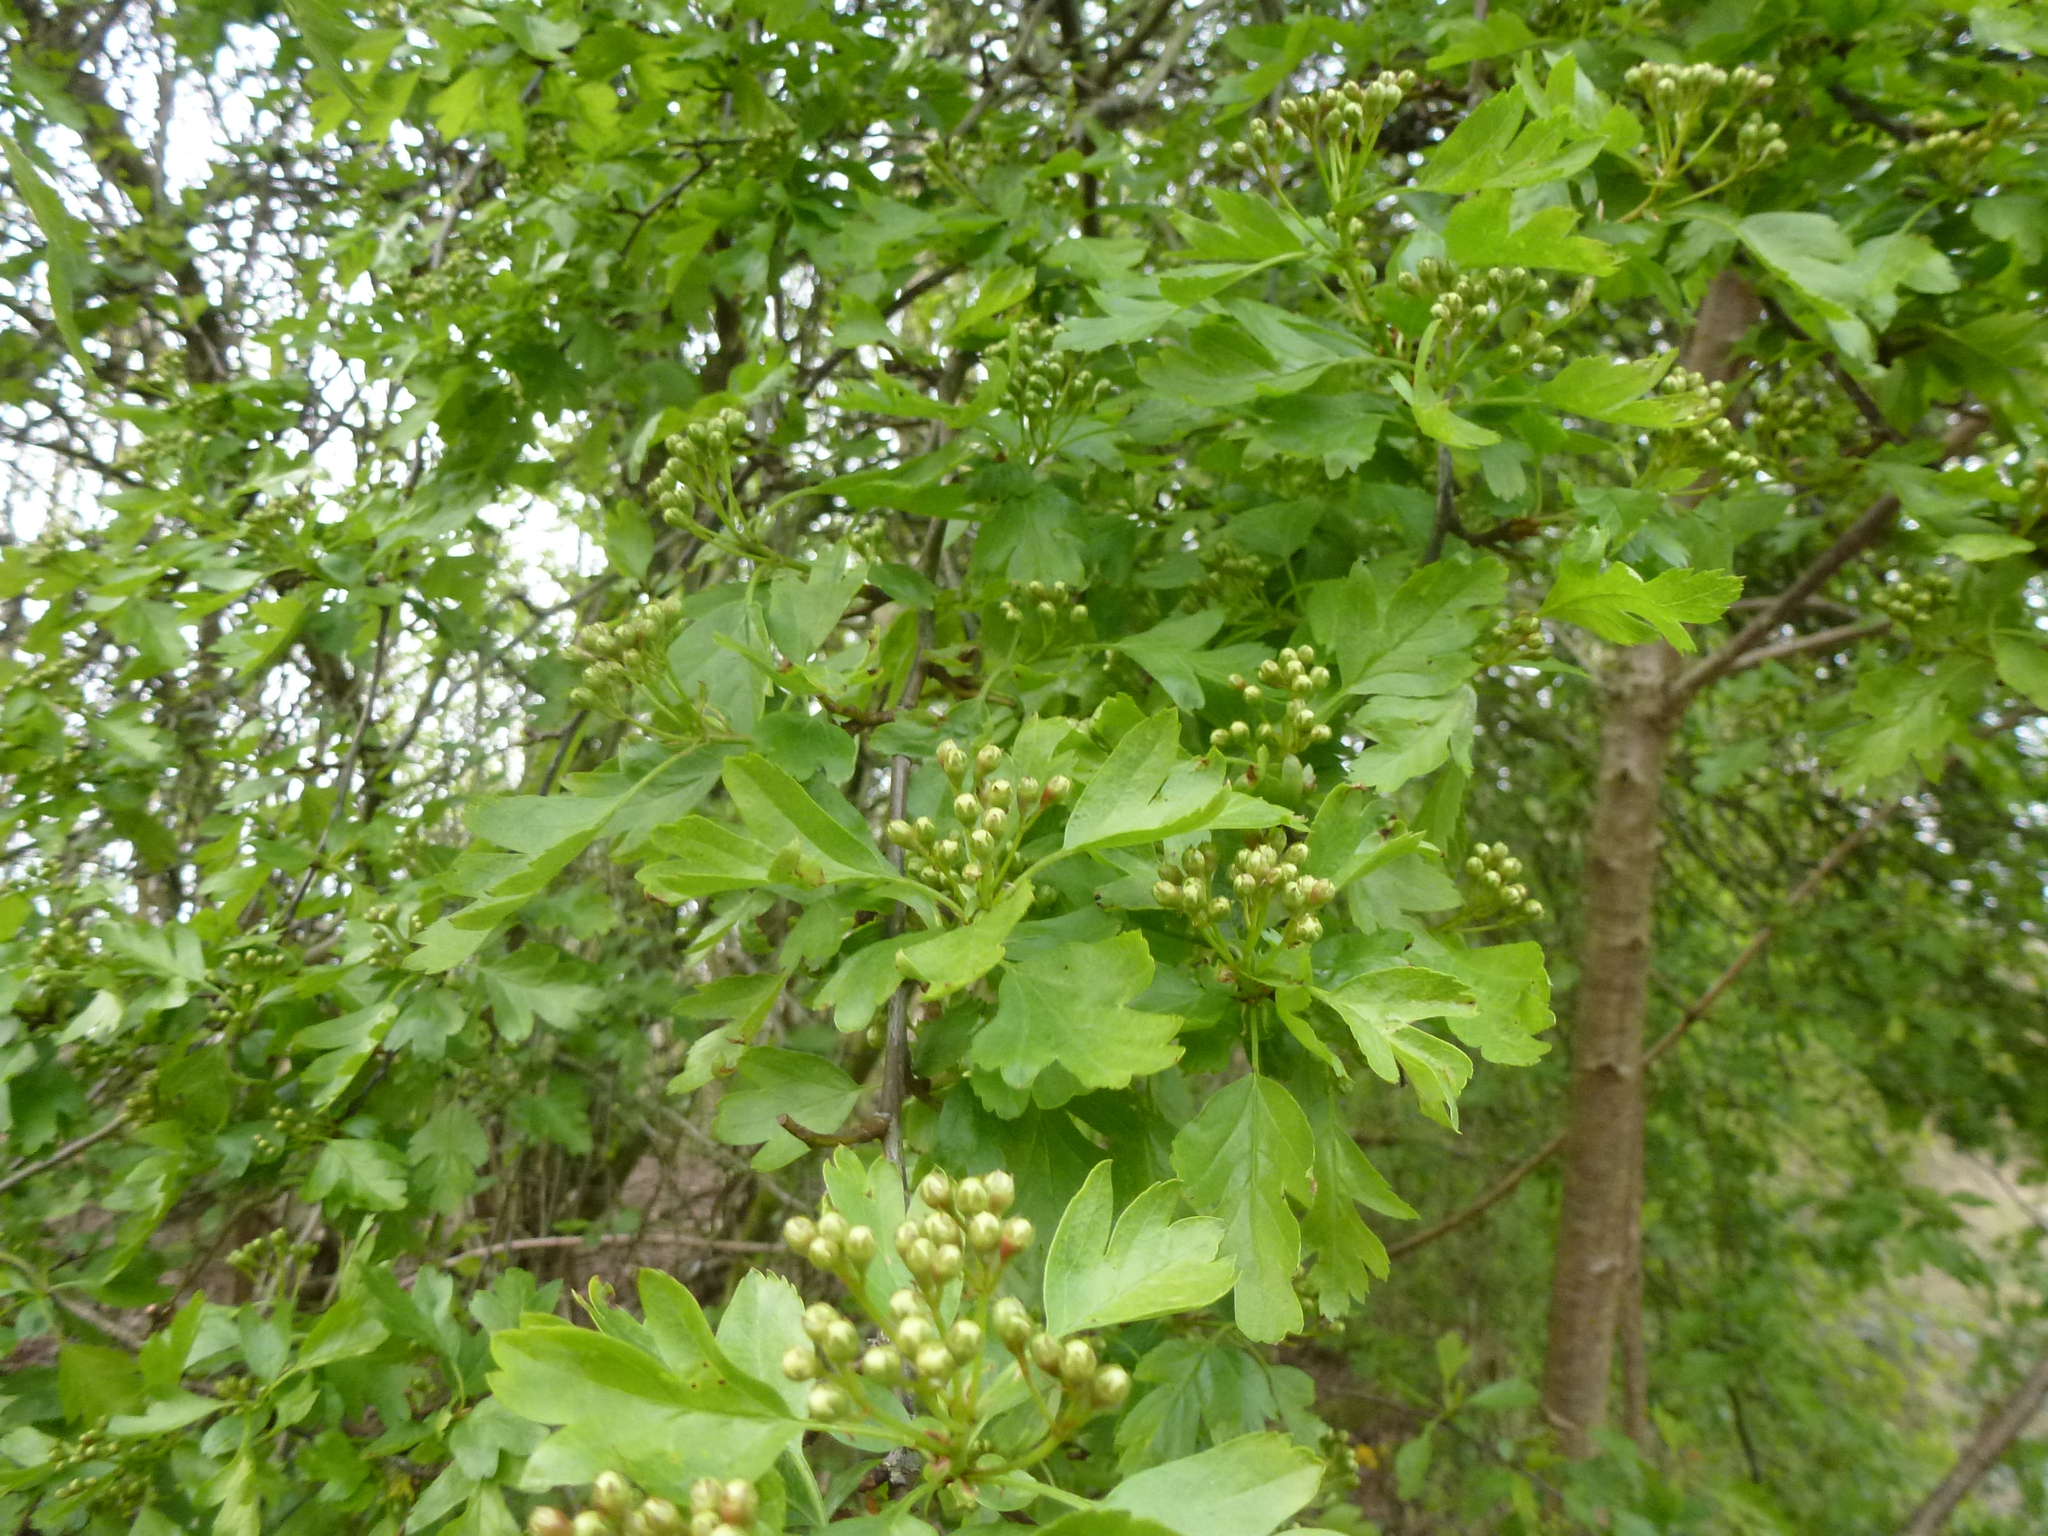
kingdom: Plantae
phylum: Tracheophyta
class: Magnoliopsida
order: Rosales
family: Rosaceae
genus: Crataegus
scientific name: Crataegus monogyna
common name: Hawthorn
